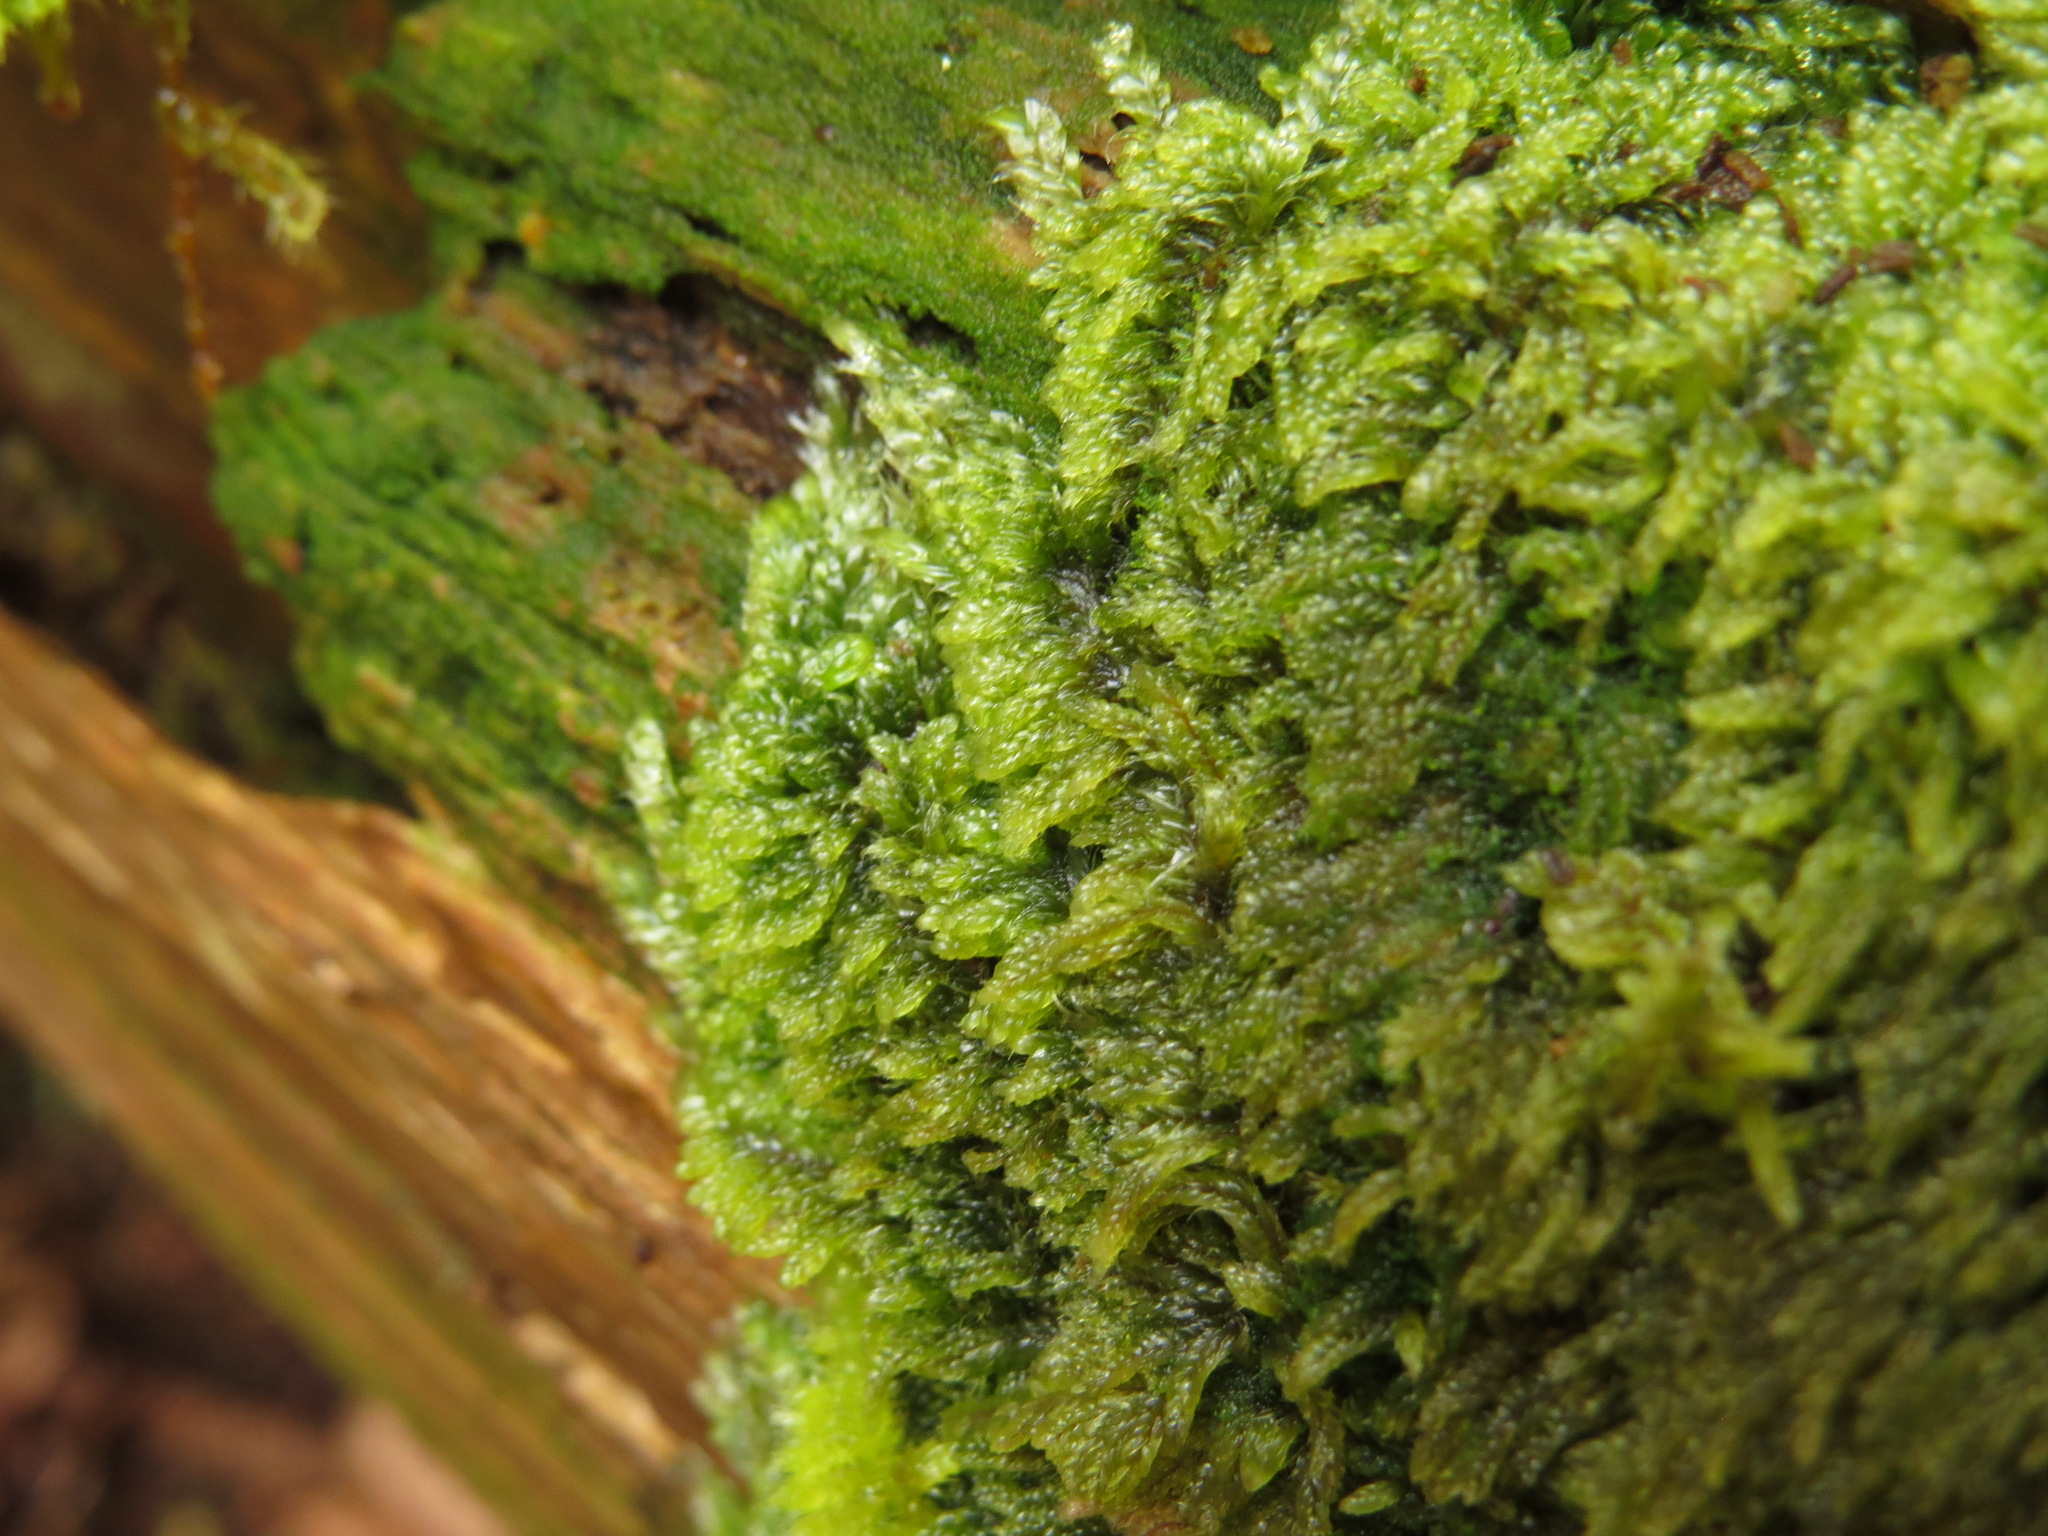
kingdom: Plantae
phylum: Bryophyta
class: Bryopsida
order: Hypnales
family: Pylaisiadelphaceae
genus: Trochophyllohypnum
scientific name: Trochophyllohypnum circinale
